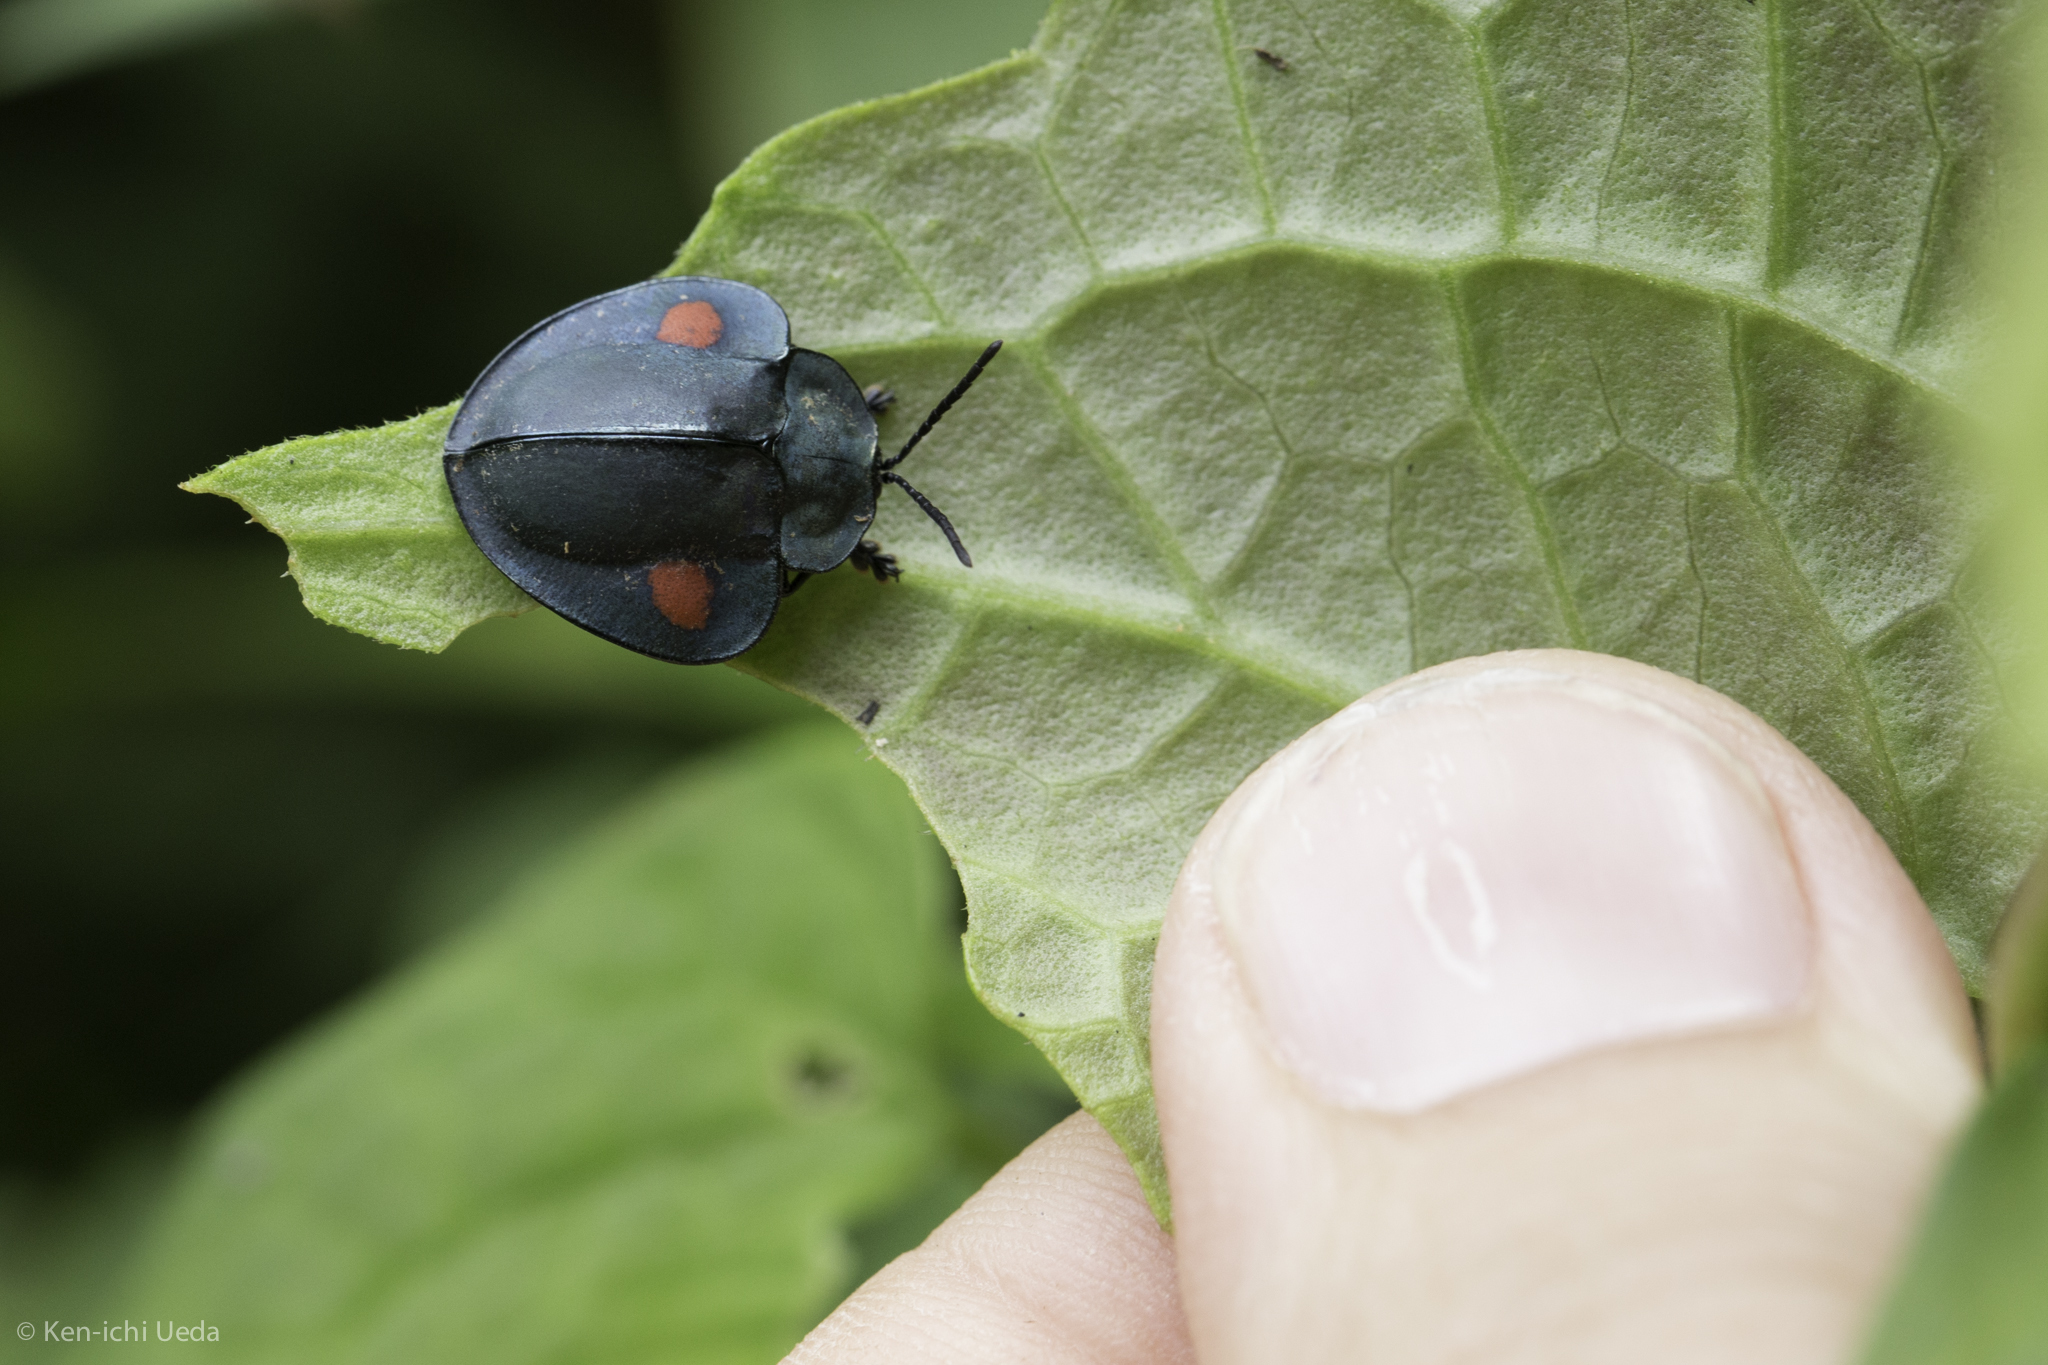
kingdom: Animalia
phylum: Arthropoda
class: Insecta
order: Coleoptera
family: Chrysomelidae
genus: Stolas
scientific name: Stolas
